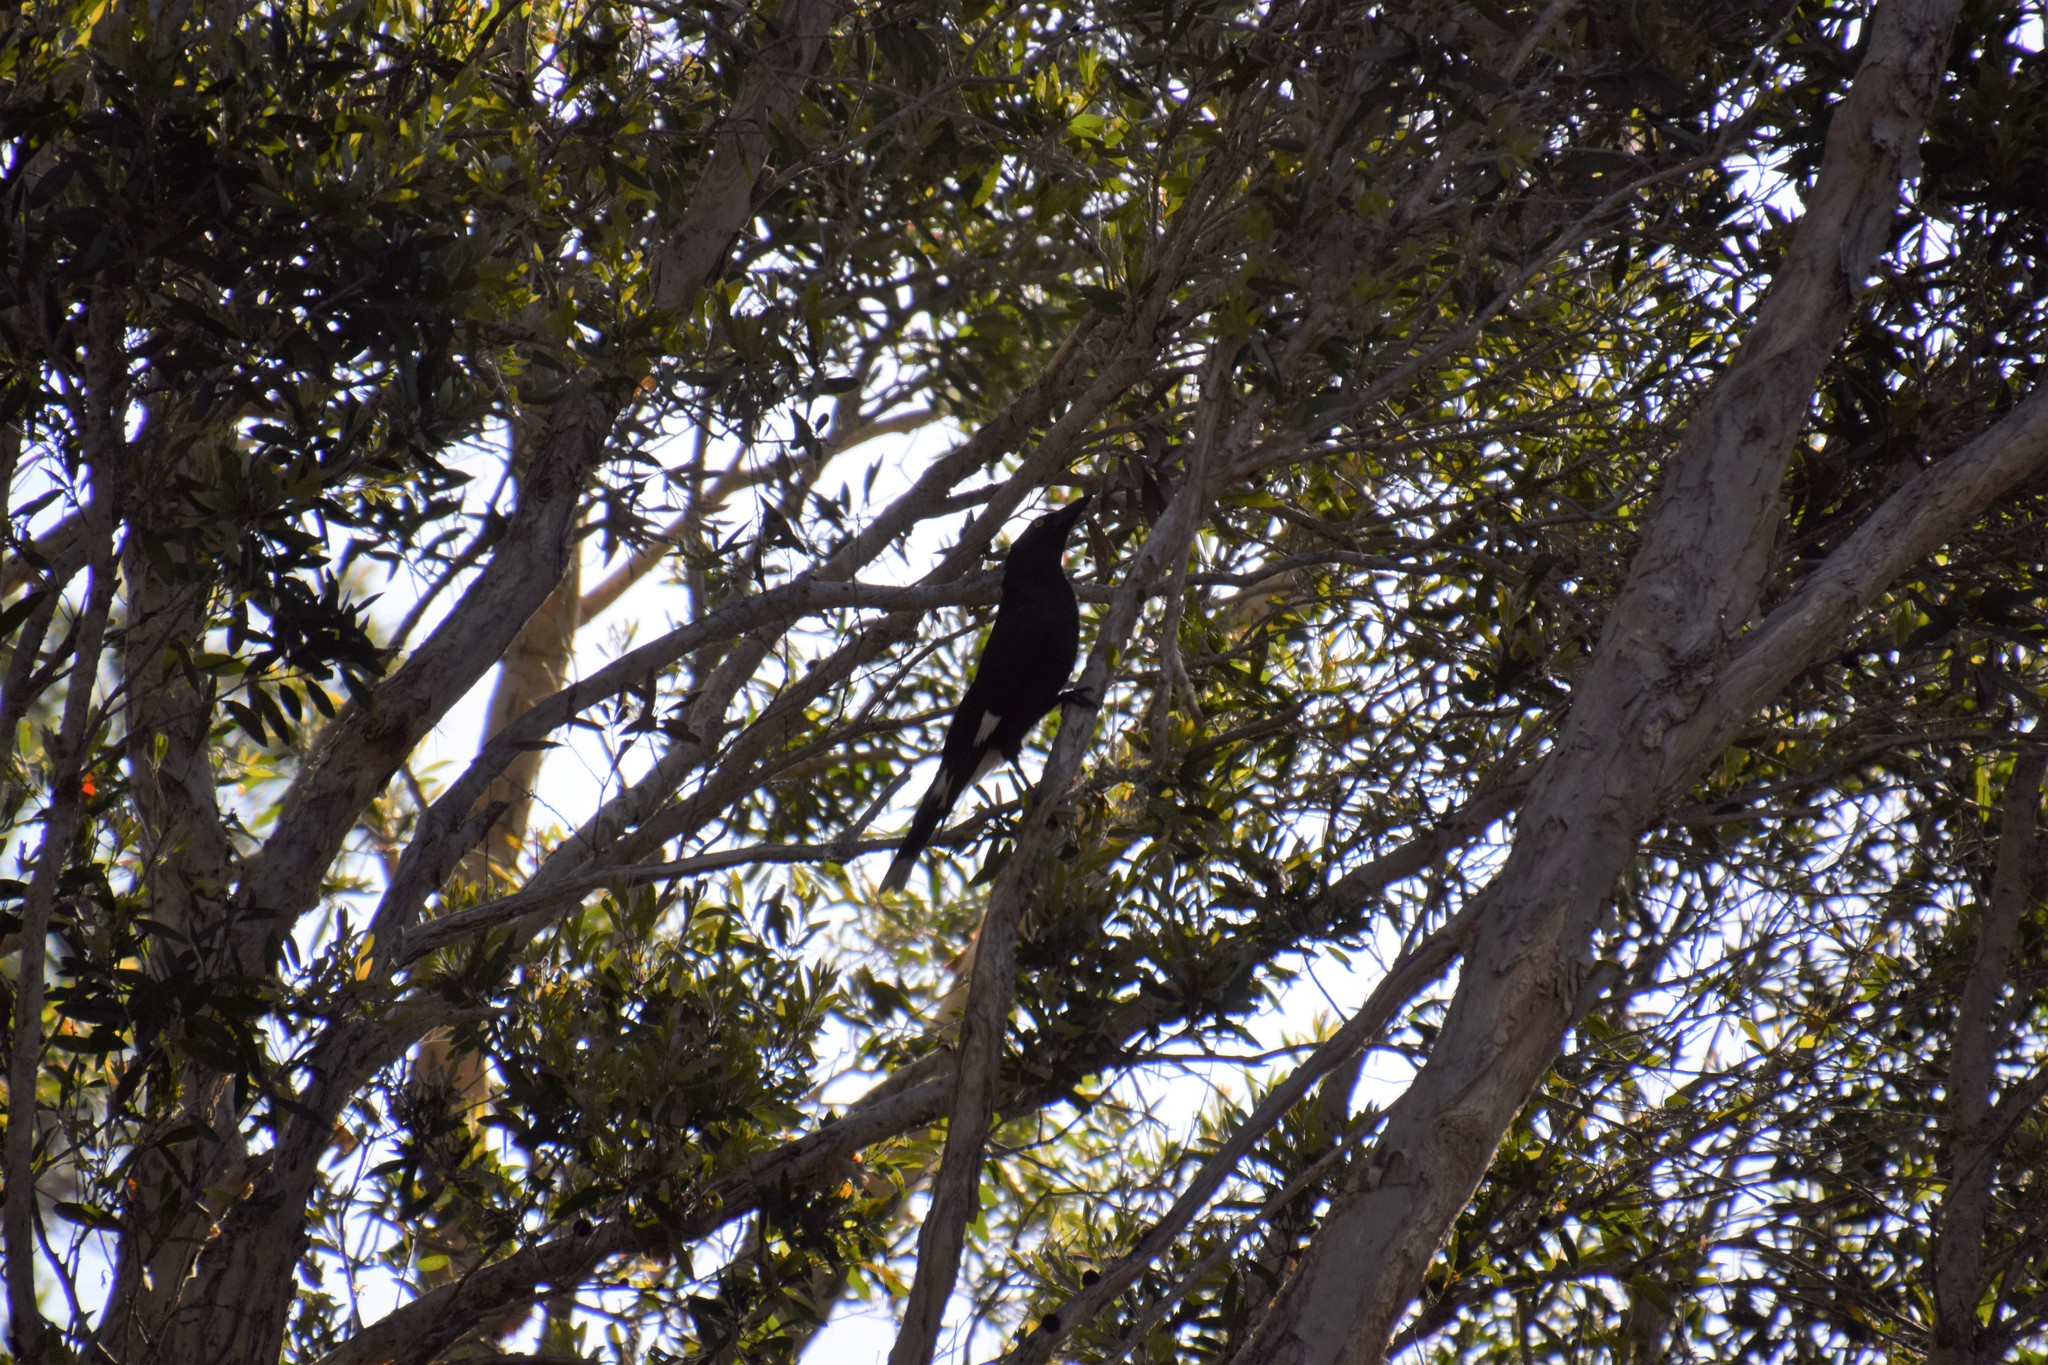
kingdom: Animalia
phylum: Chordata
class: Aves
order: Passeriformes
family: Cracticidae
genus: Strepera
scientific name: Strepera graculina
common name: Pied currawong
